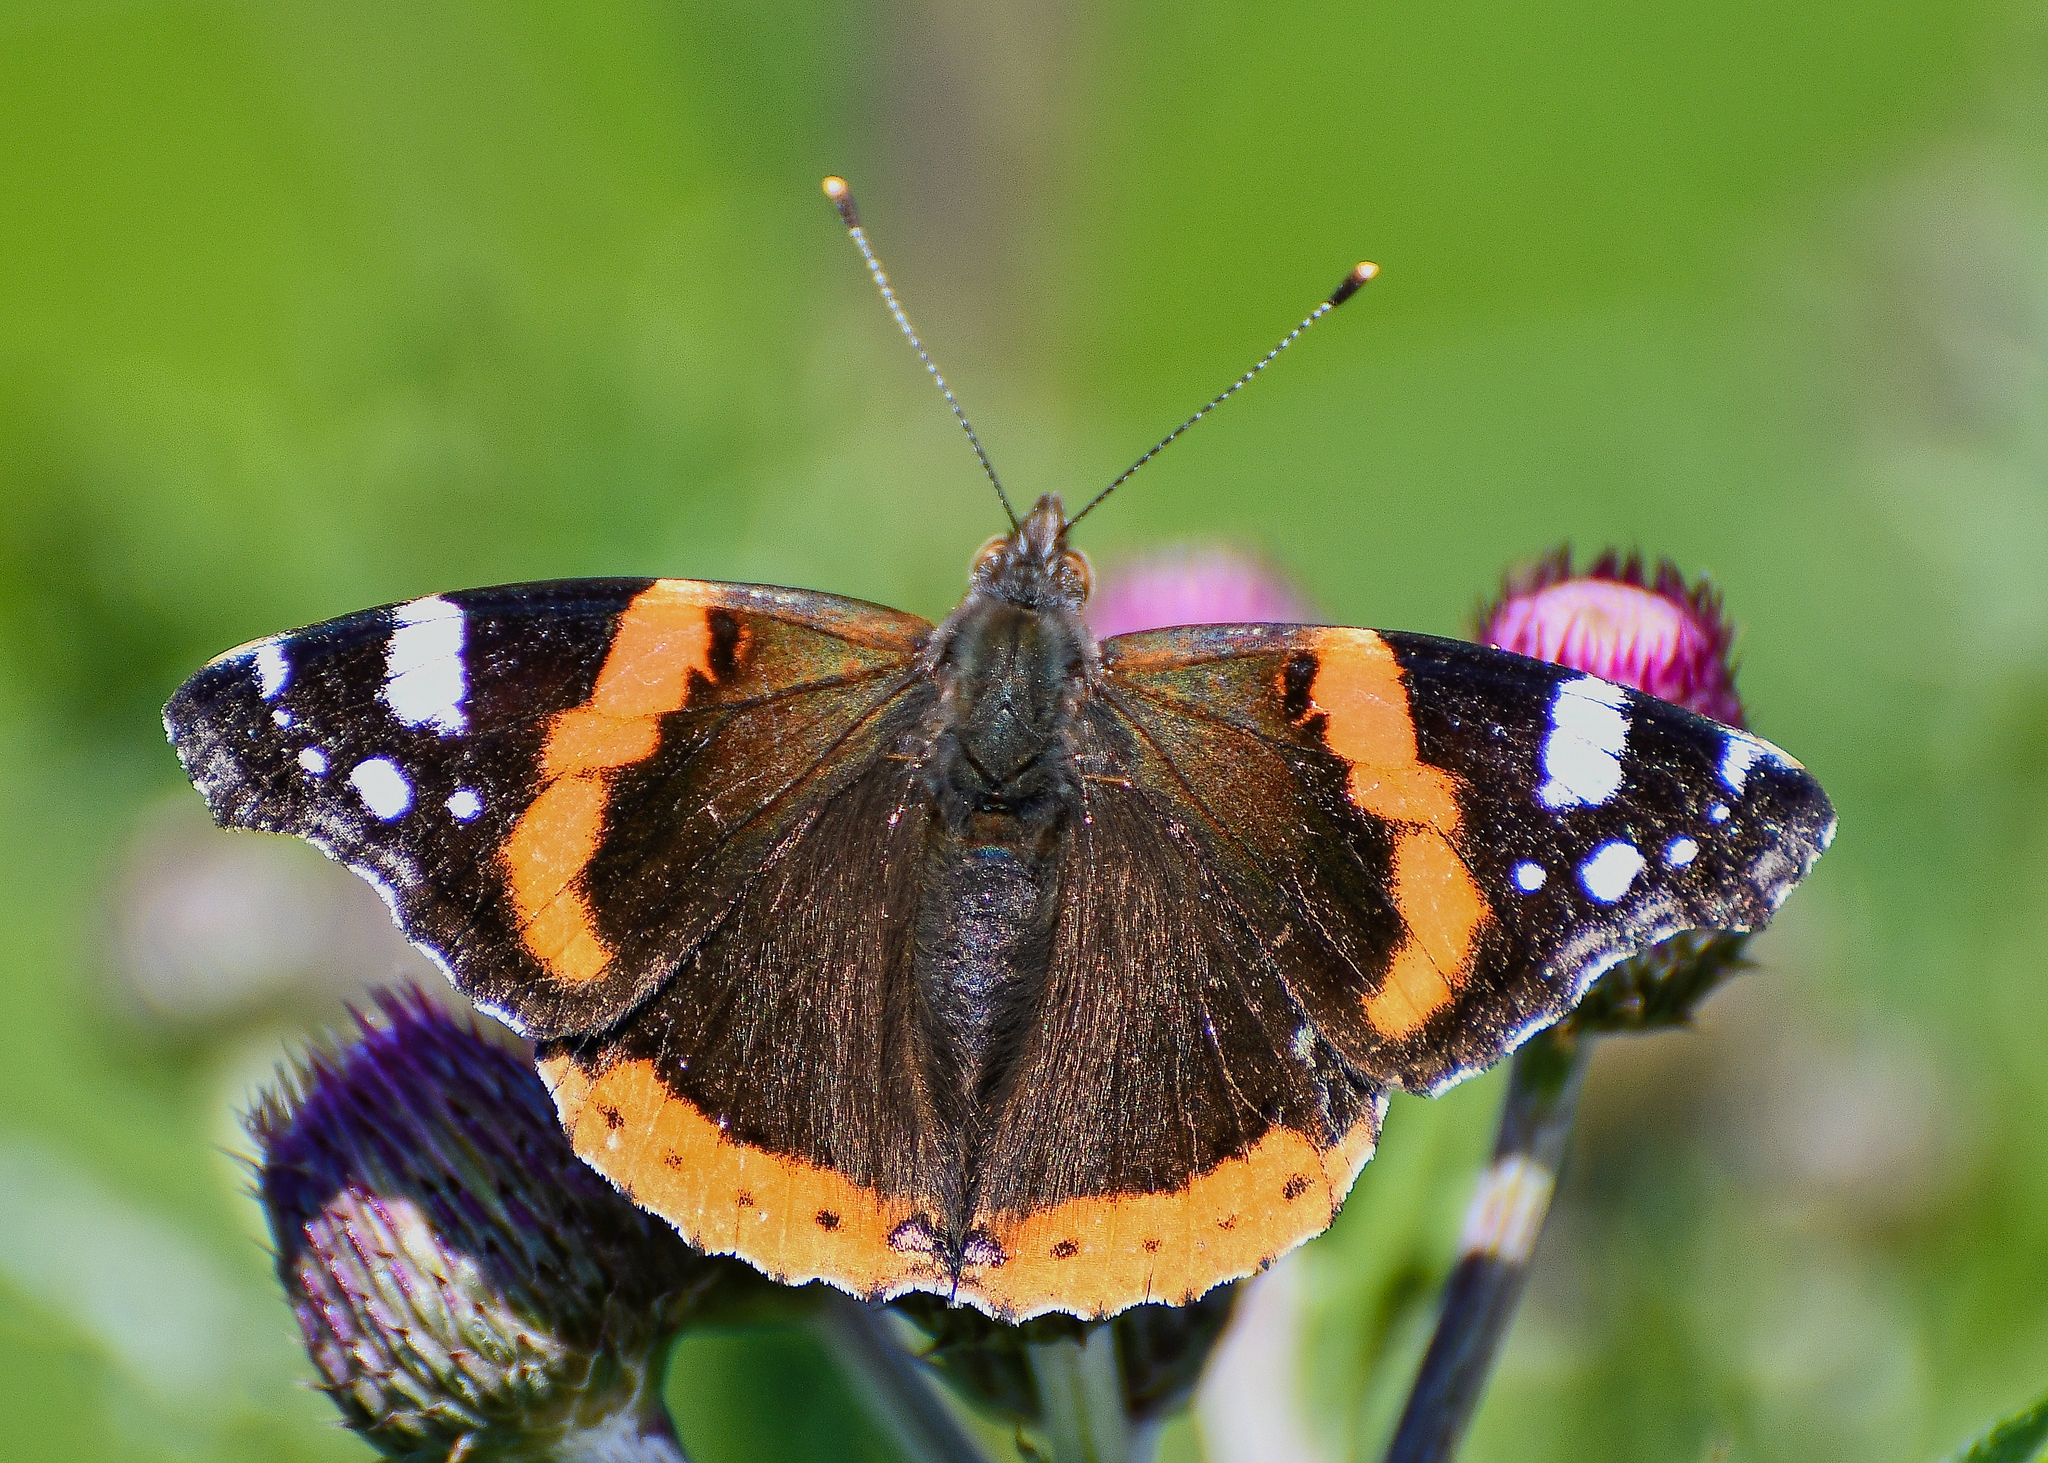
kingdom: Animalia
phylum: Arthropoda
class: Insecta
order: Lepidoptera
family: Nymphalidae
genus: Vanessa
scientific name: Vanessa atalanta
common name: Red admiral
